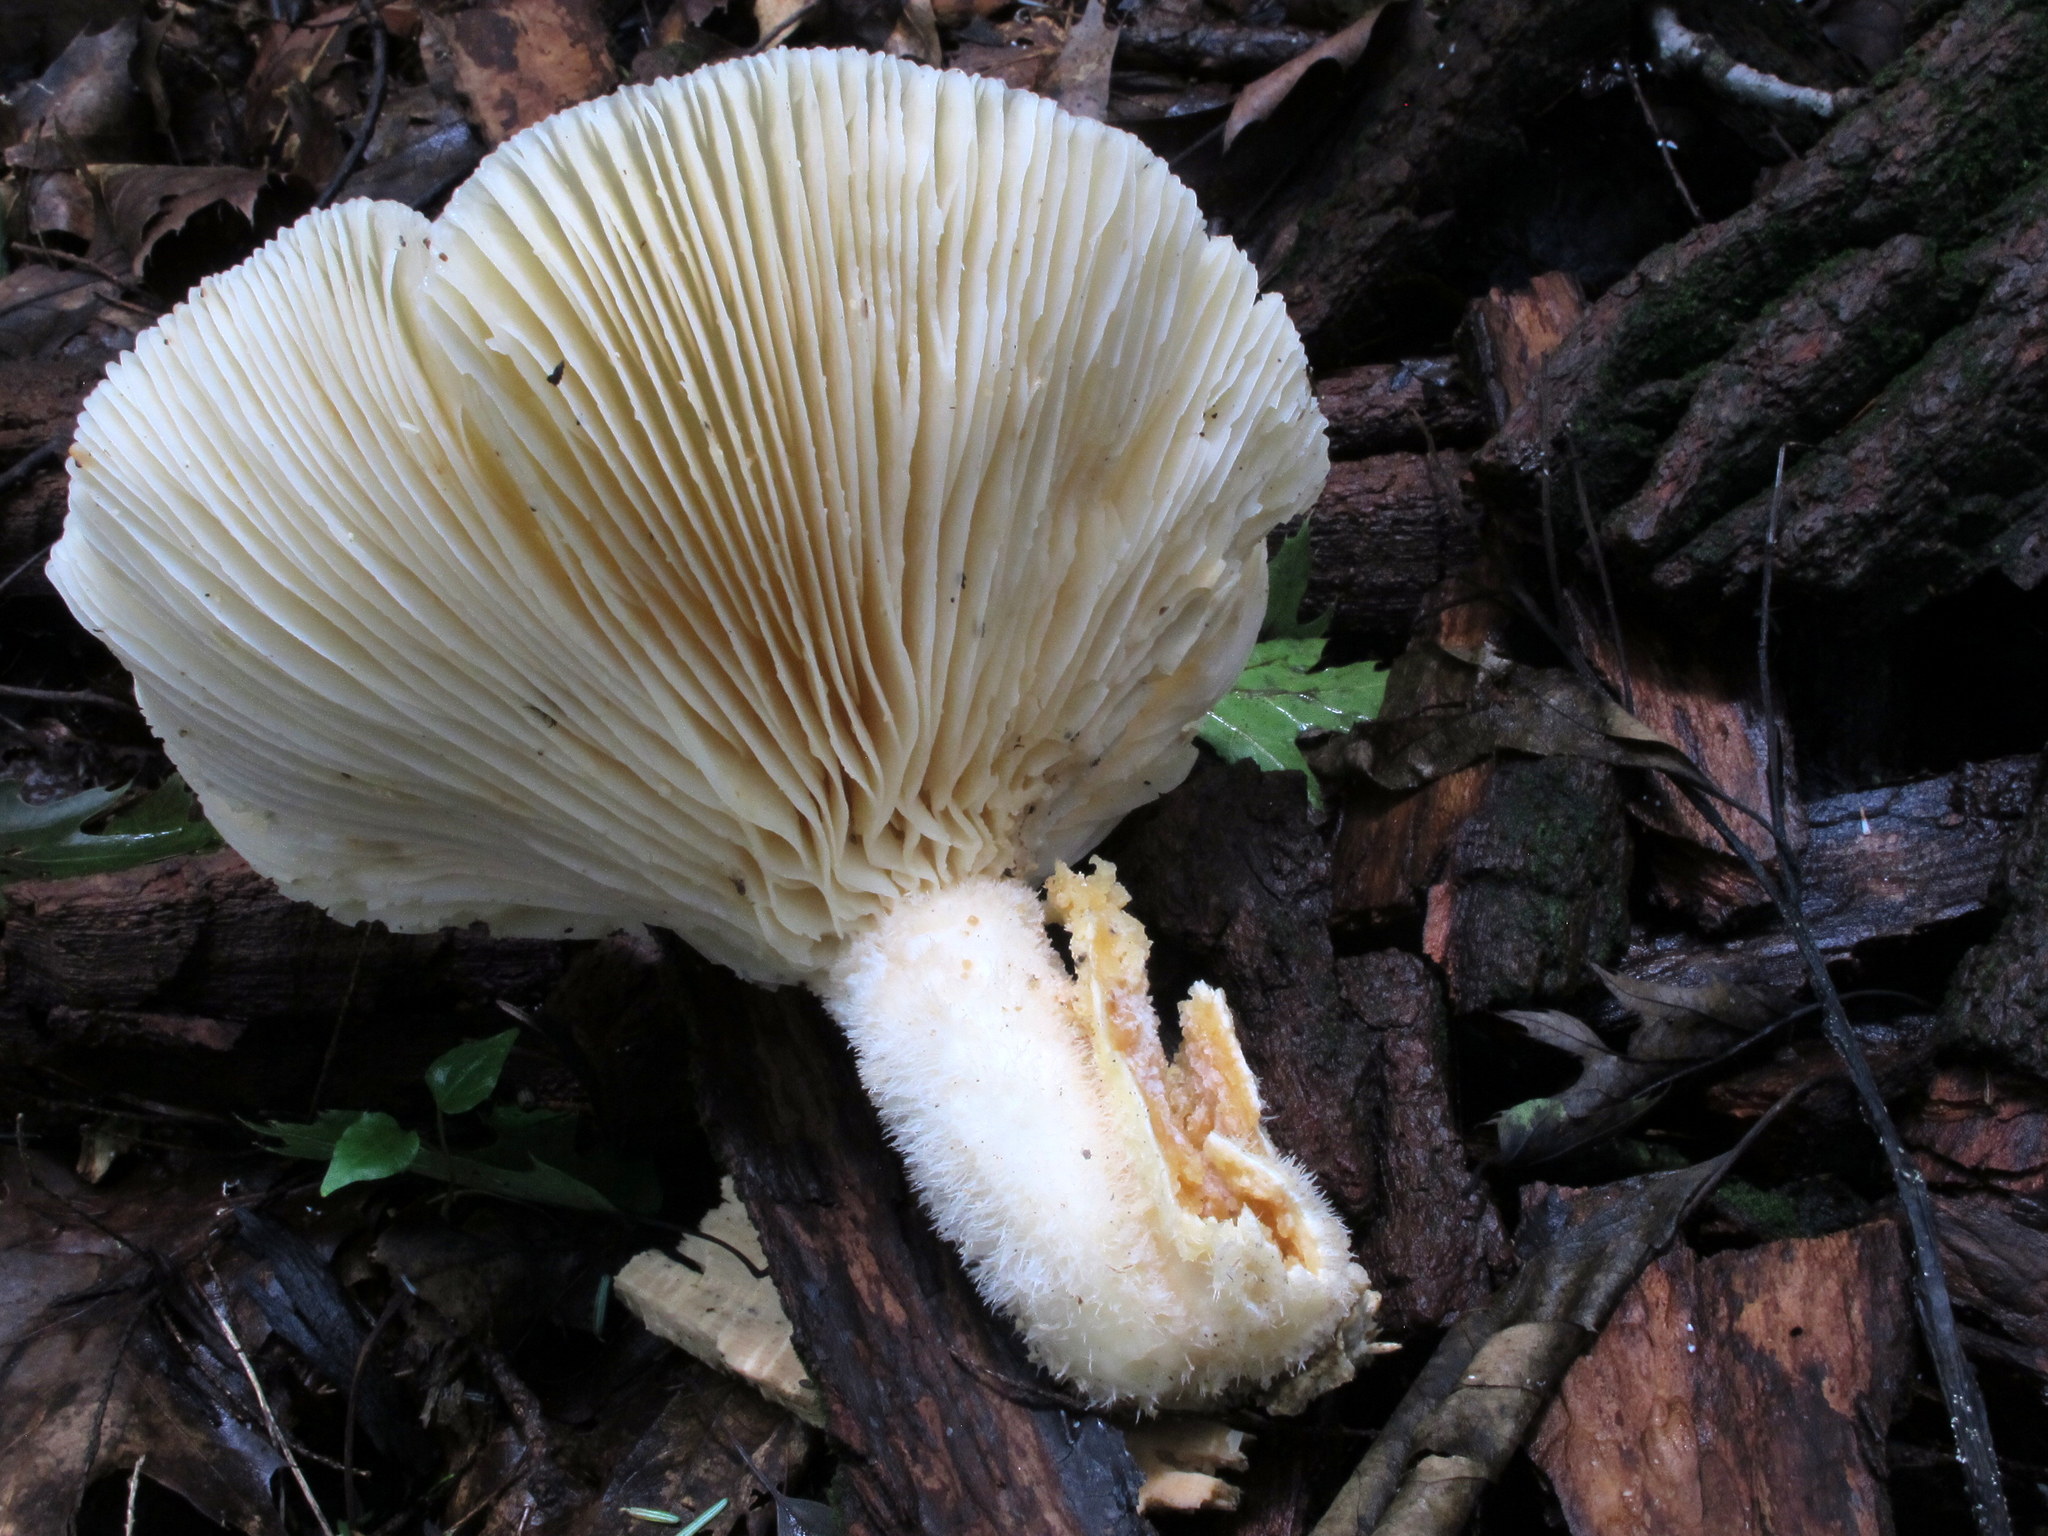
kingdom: Fungi
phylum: Basidiomycota
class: Agaricomycetes
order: Polyporales
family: Polyporaceae
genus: Lentinus
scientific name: Lentinus levis
